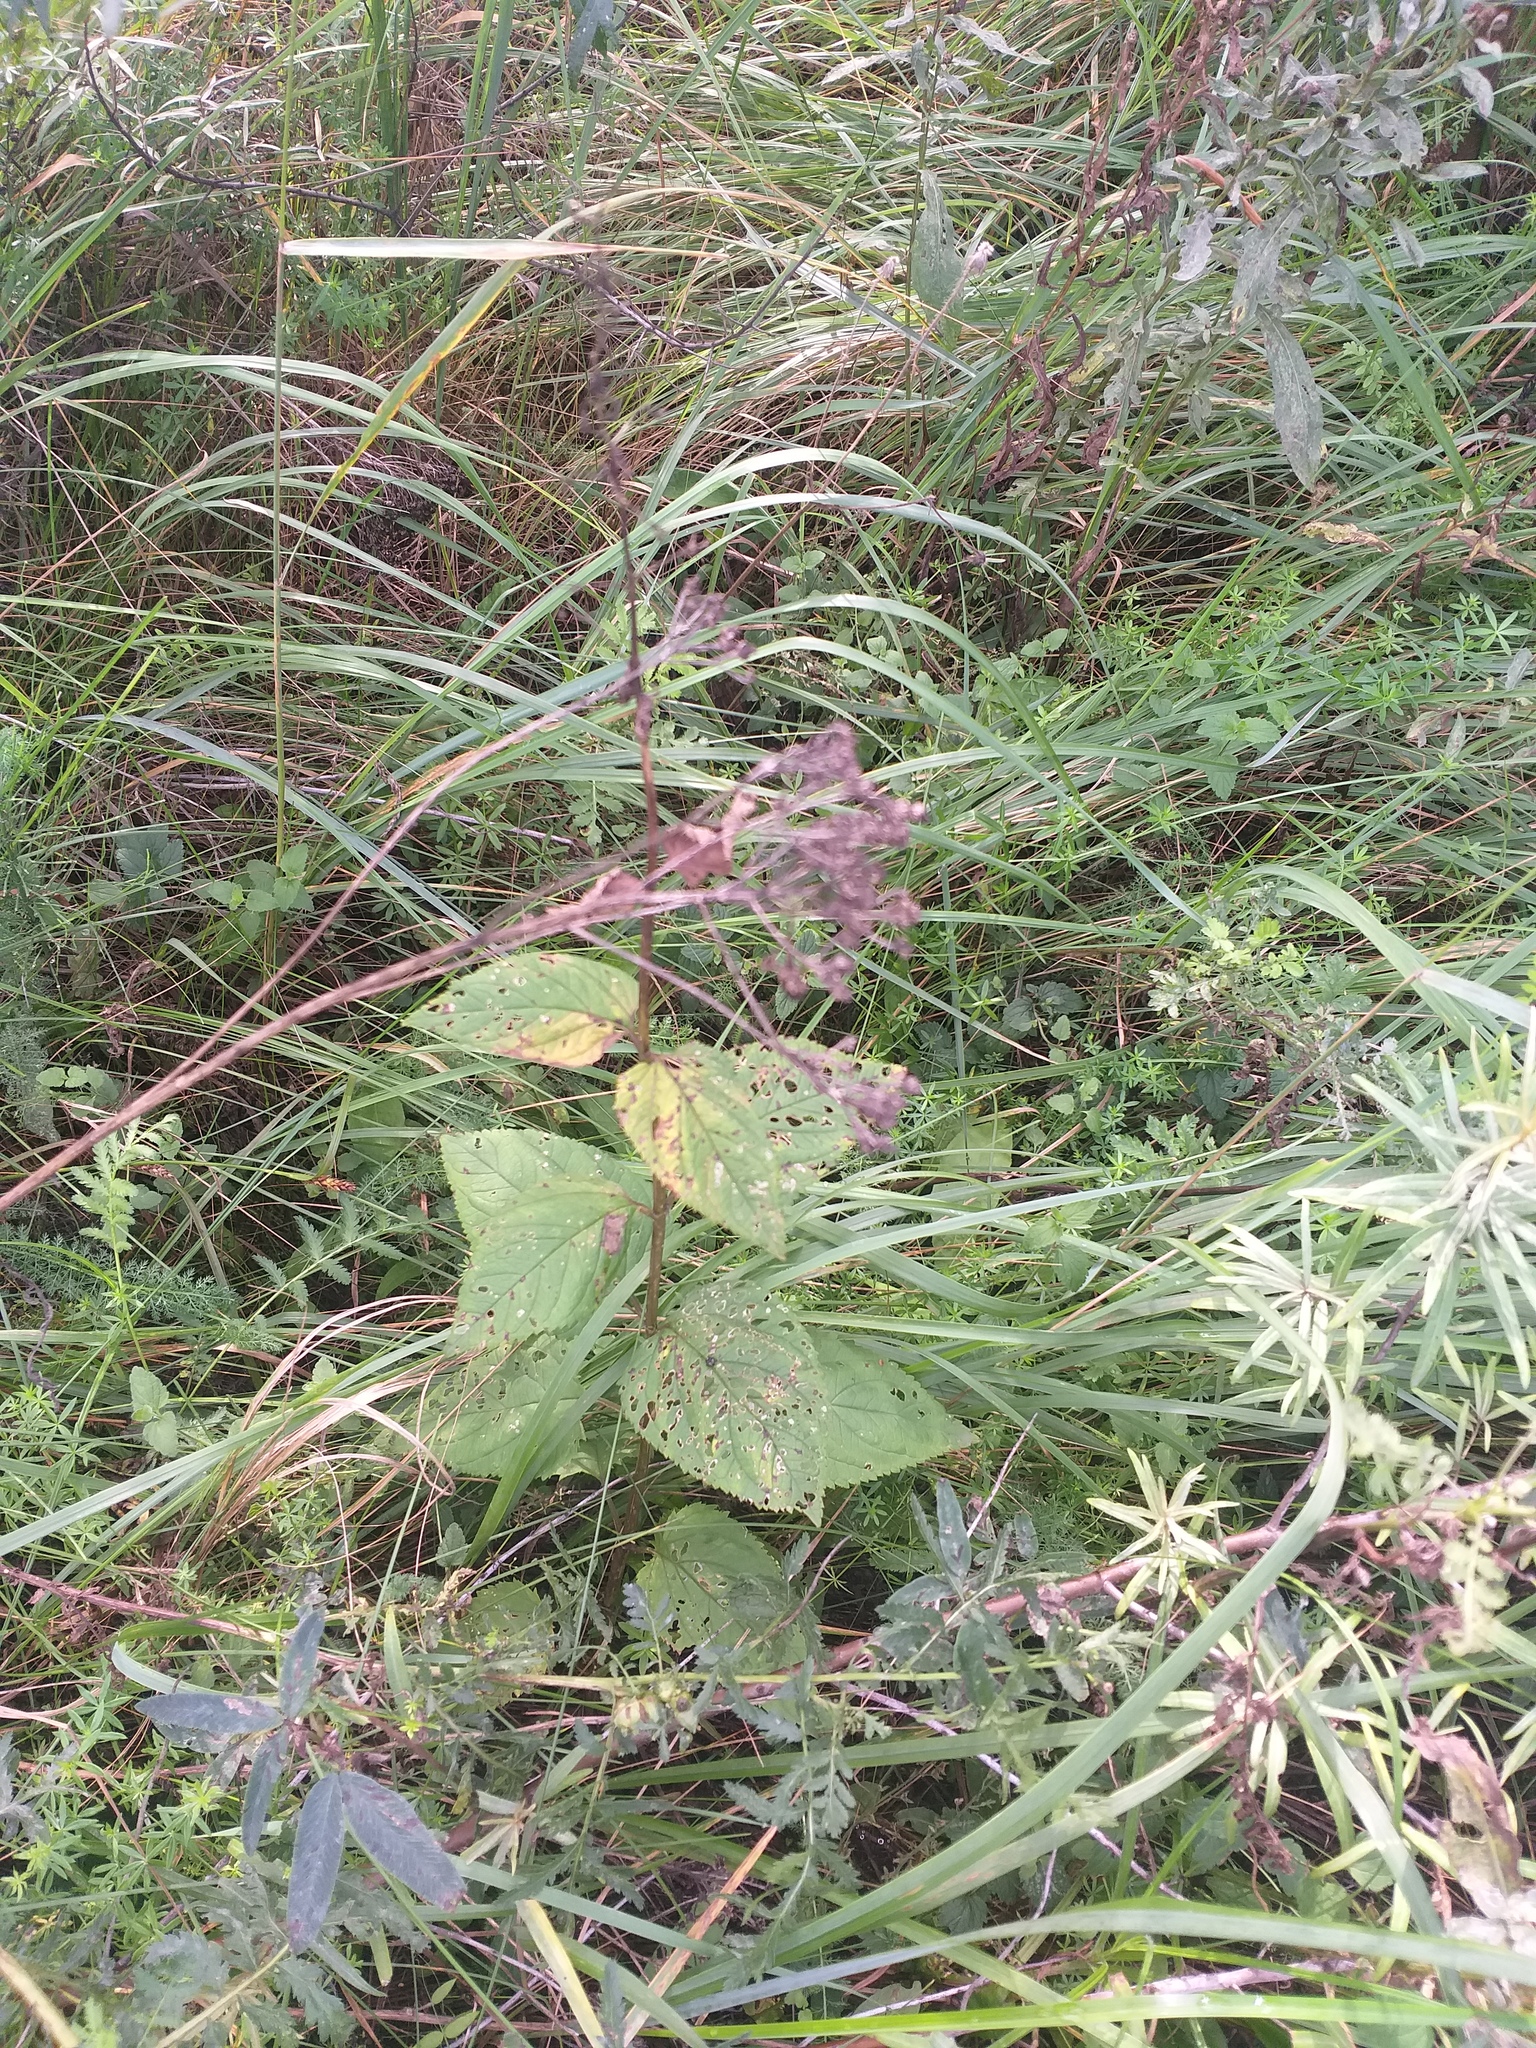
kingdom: Plantae
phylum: Tracheophyta
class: Magnoliopsida
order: Lamiales
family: Scrophulariaceae
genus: Scrophularia
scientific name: Scrophularia nodosa
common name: Common figwort
